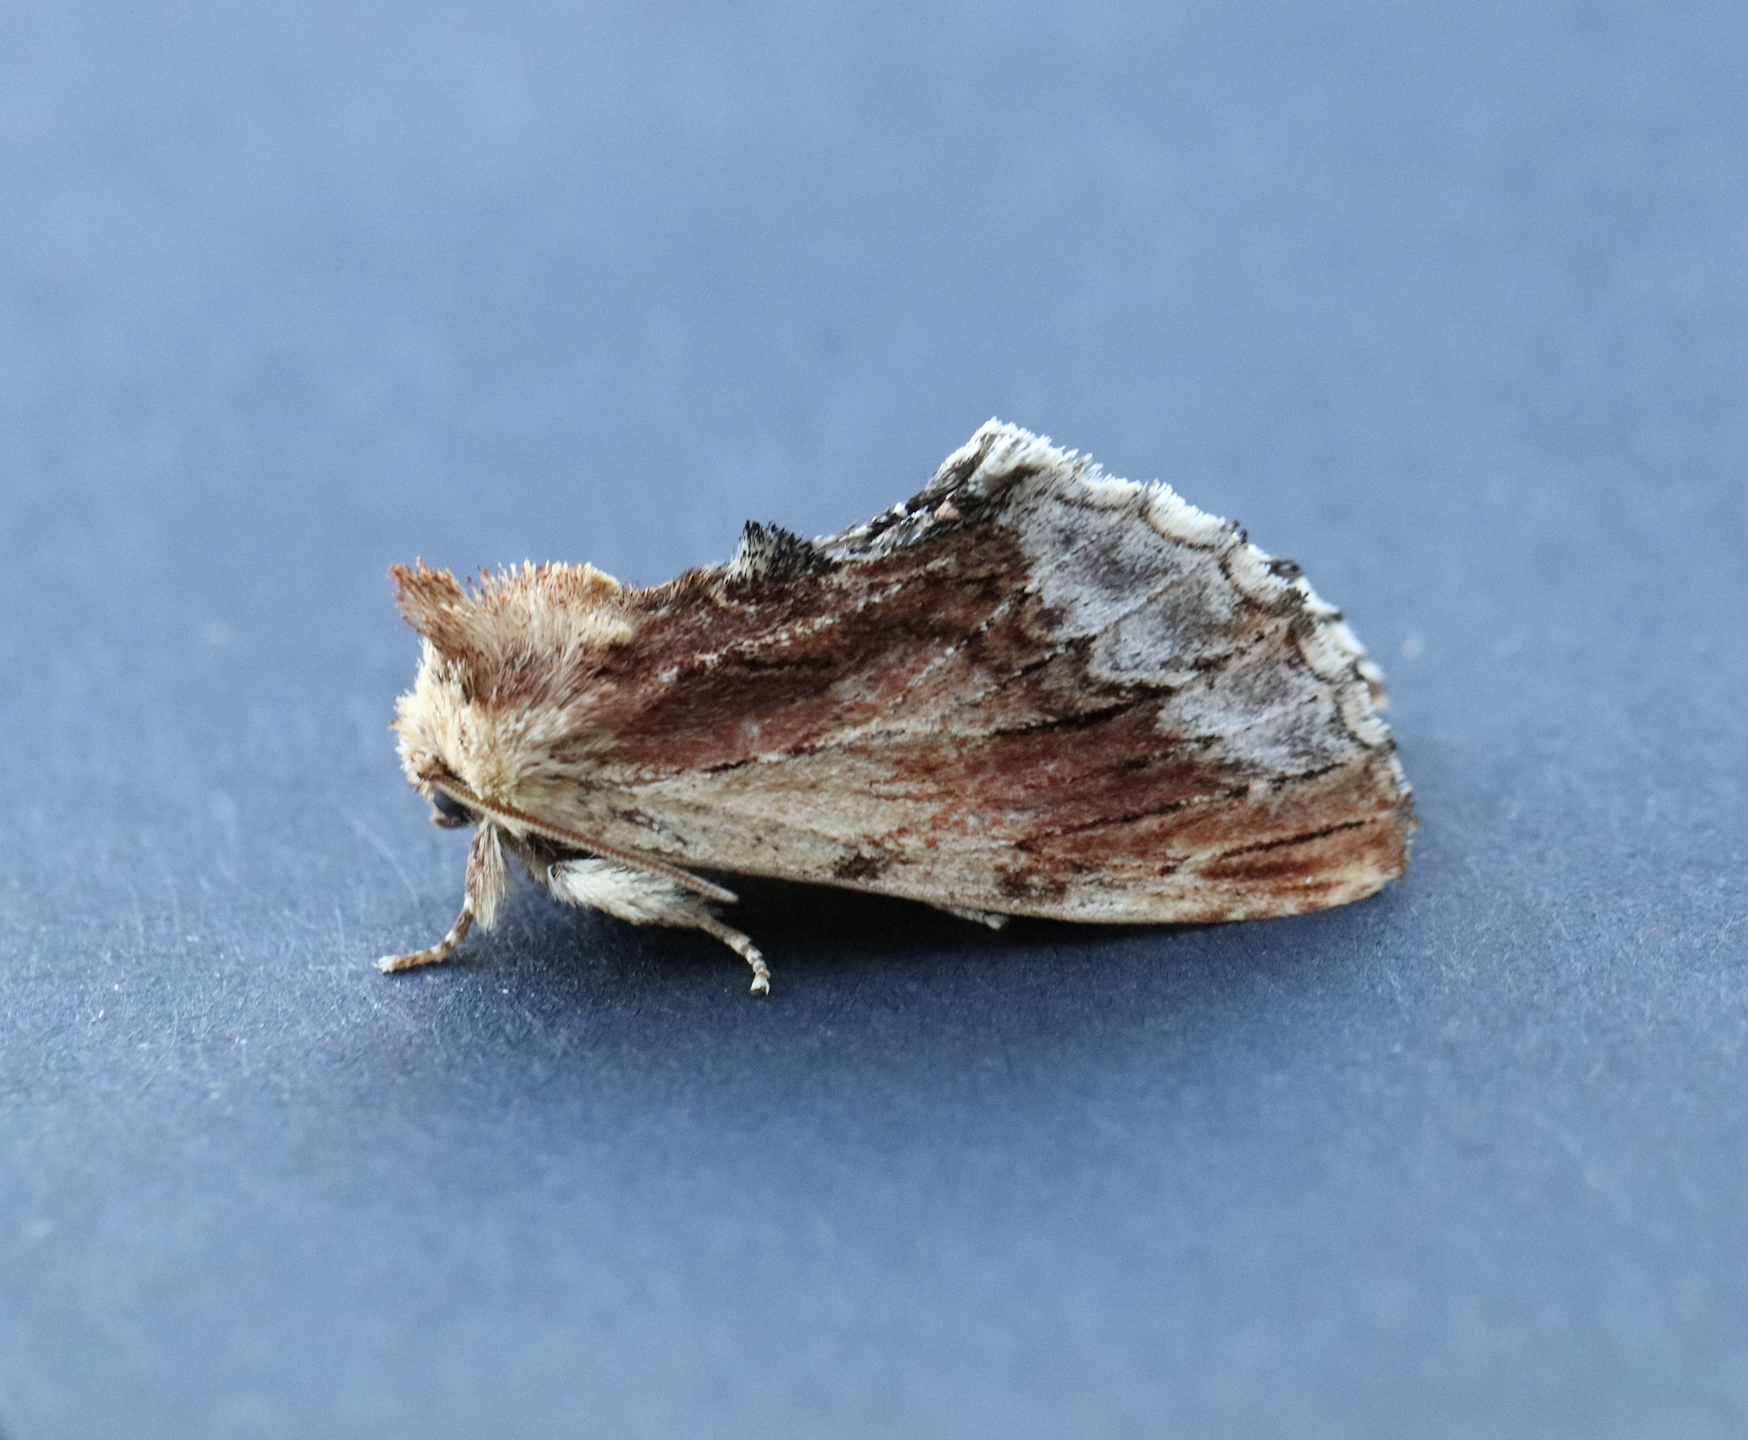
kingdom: Animalia
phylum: Arthropoda
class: Insecta
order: Lepidoptera
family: Notodontidae
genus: Ptilodon
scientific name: Ptilodon cucullina
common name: Maple prominent
